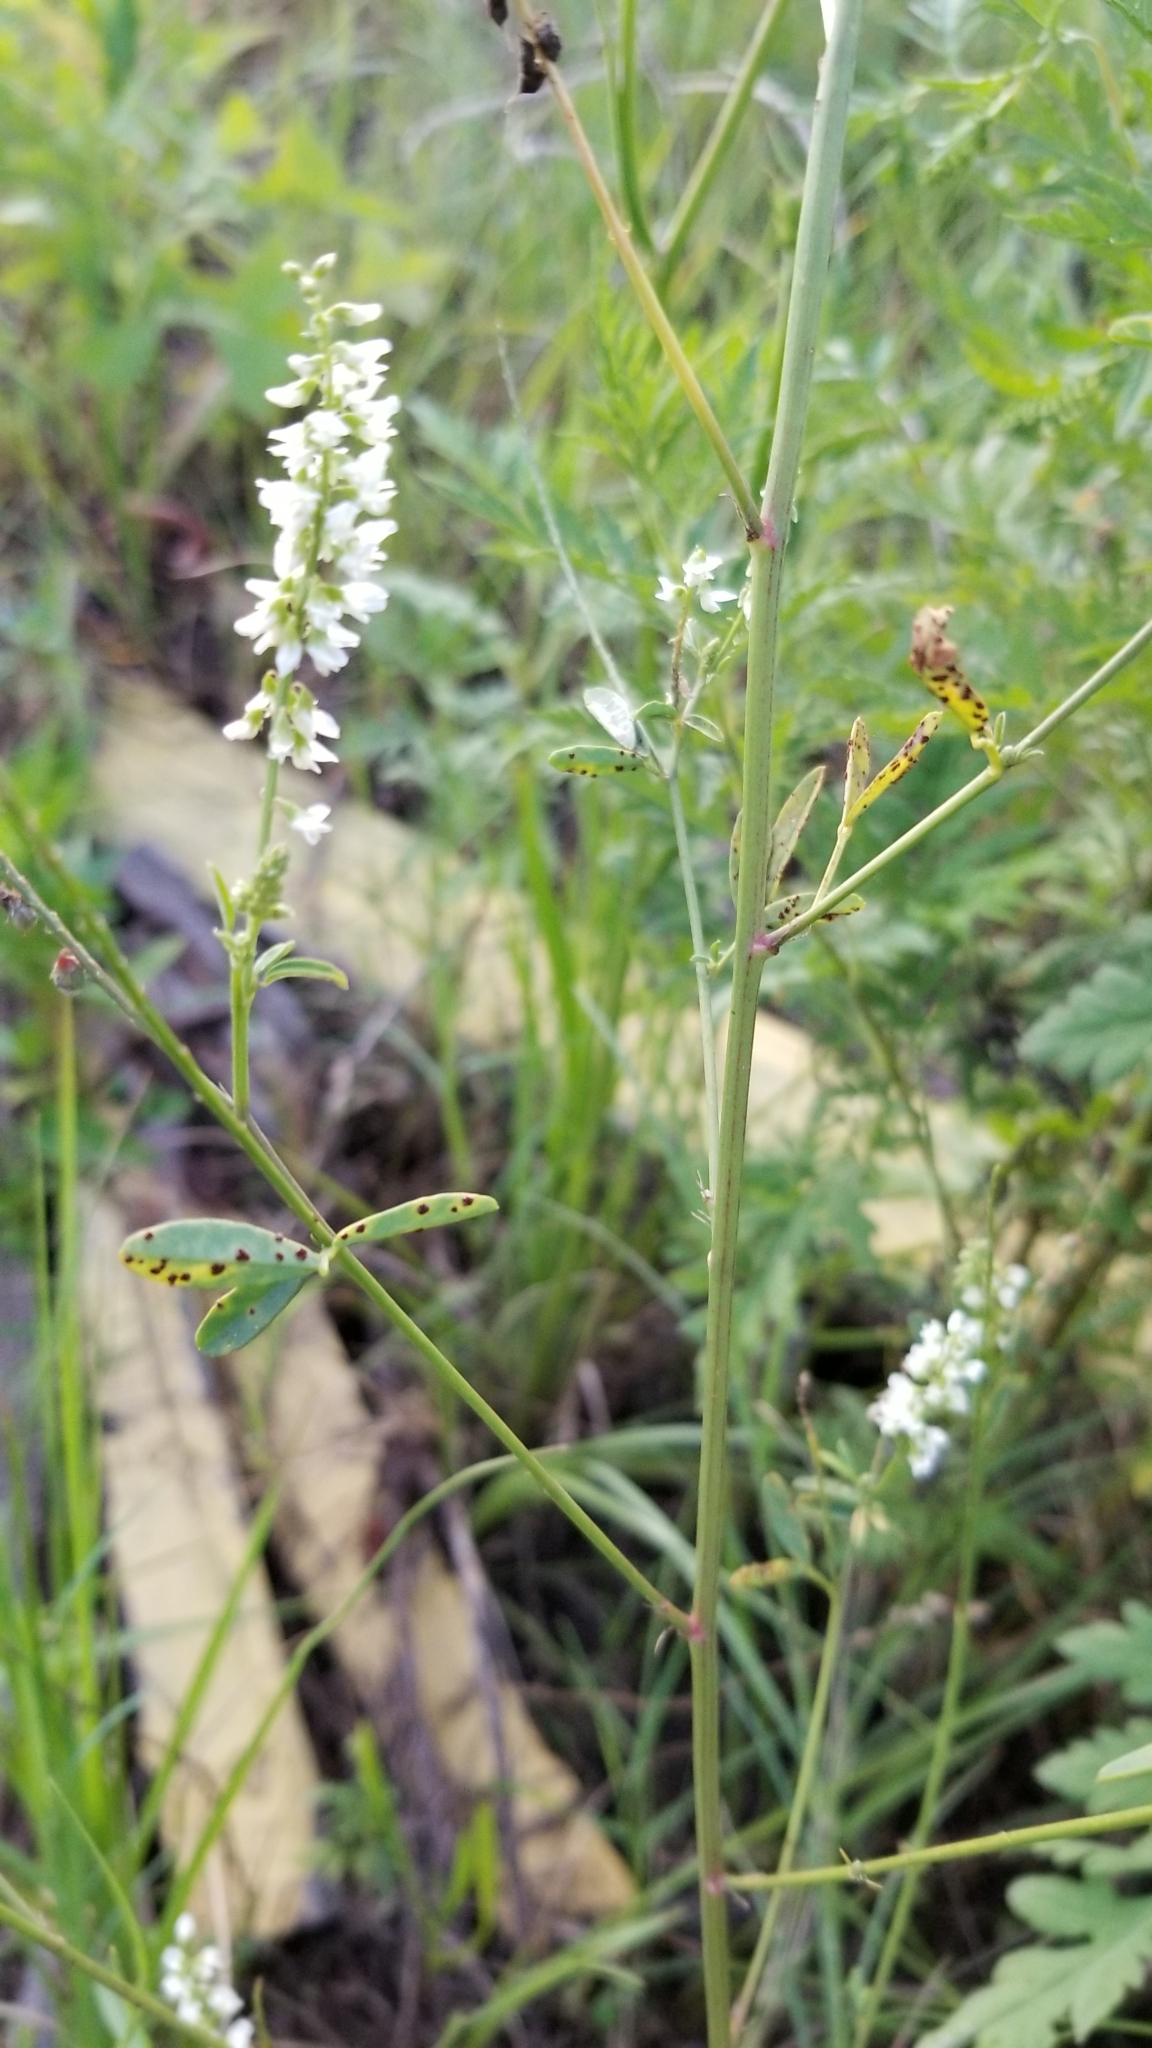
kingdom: Plantae
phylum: Tracheophyta
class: Magnoliopsida
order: Fabales
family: Fabaceae
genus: Melilotus
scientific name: Melilotus albus
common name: White melilot
